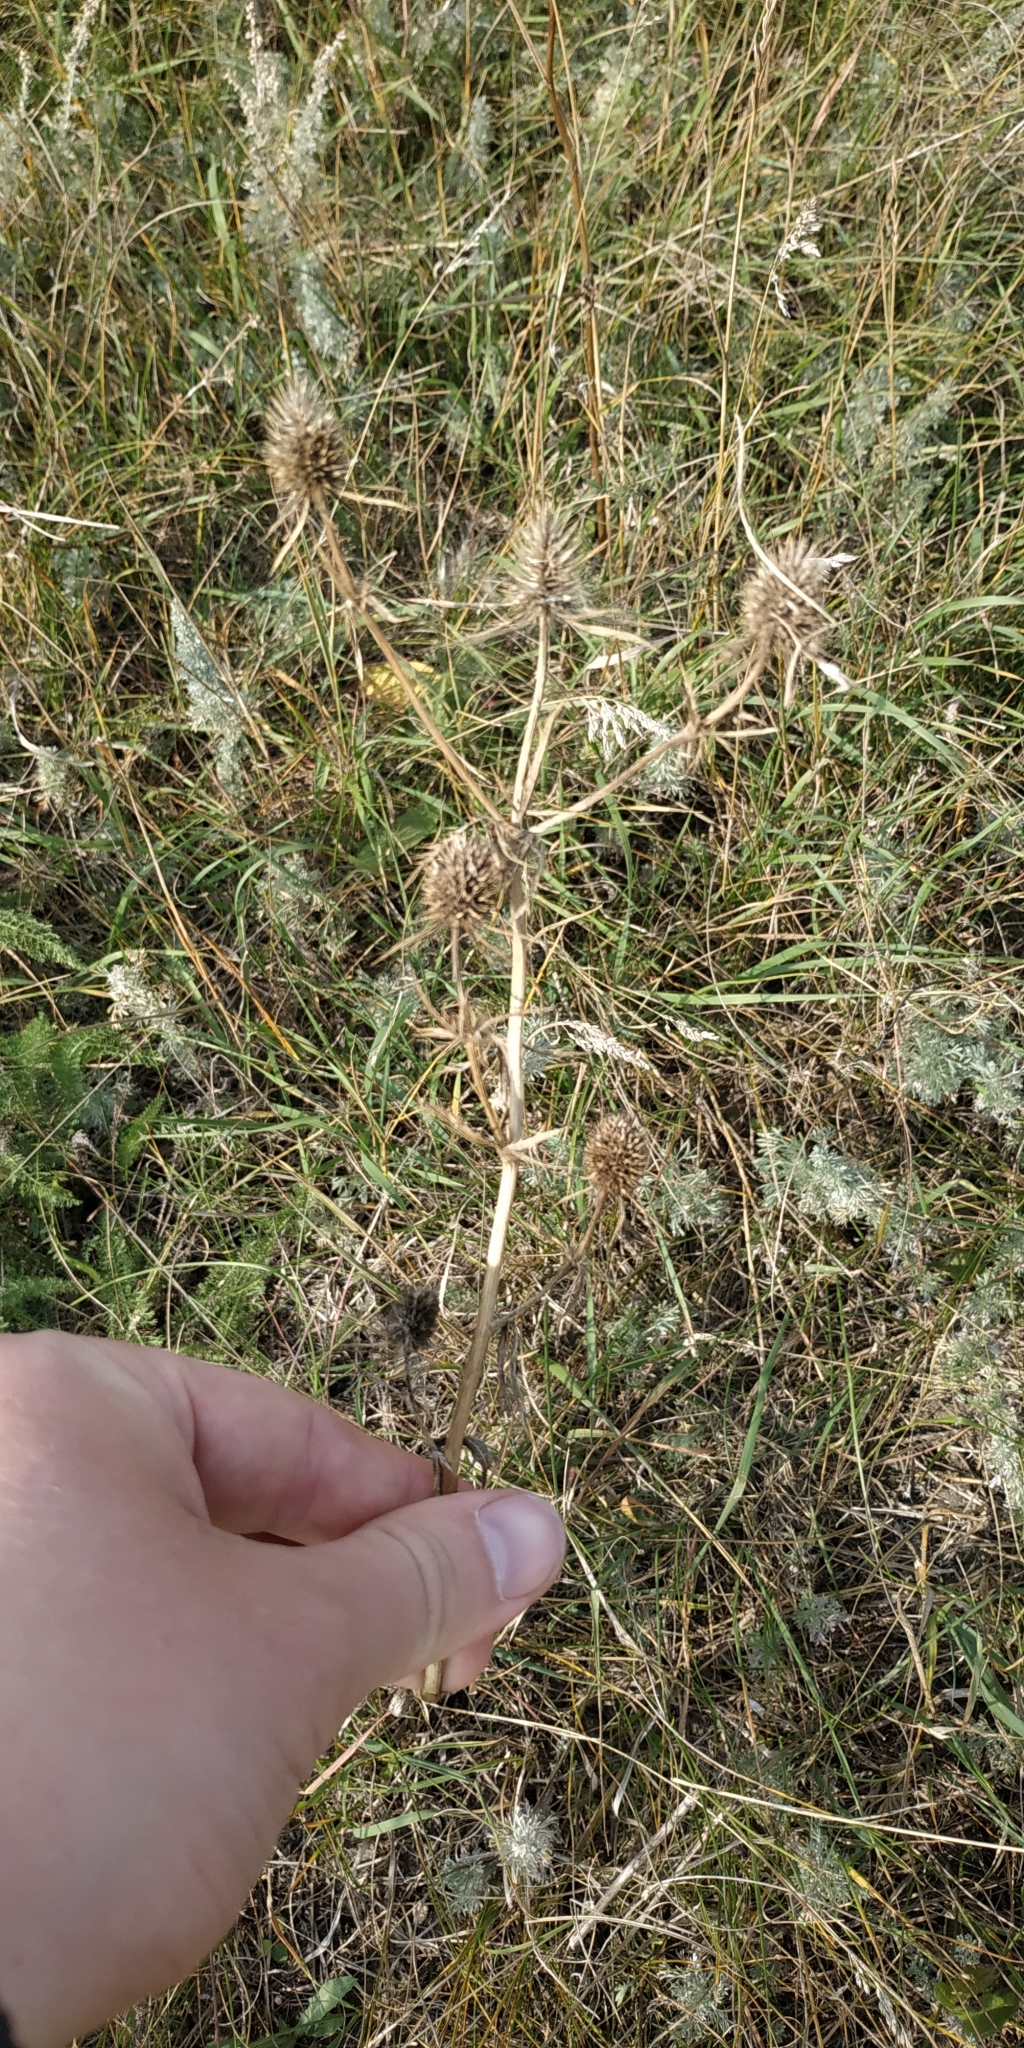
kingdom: Plantae
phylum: Tracheophyta
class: Magnoliopsida
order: Apiales
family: Apiaceae
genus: Eryngium
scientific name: Eryngium planum
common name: Blue eryngo
